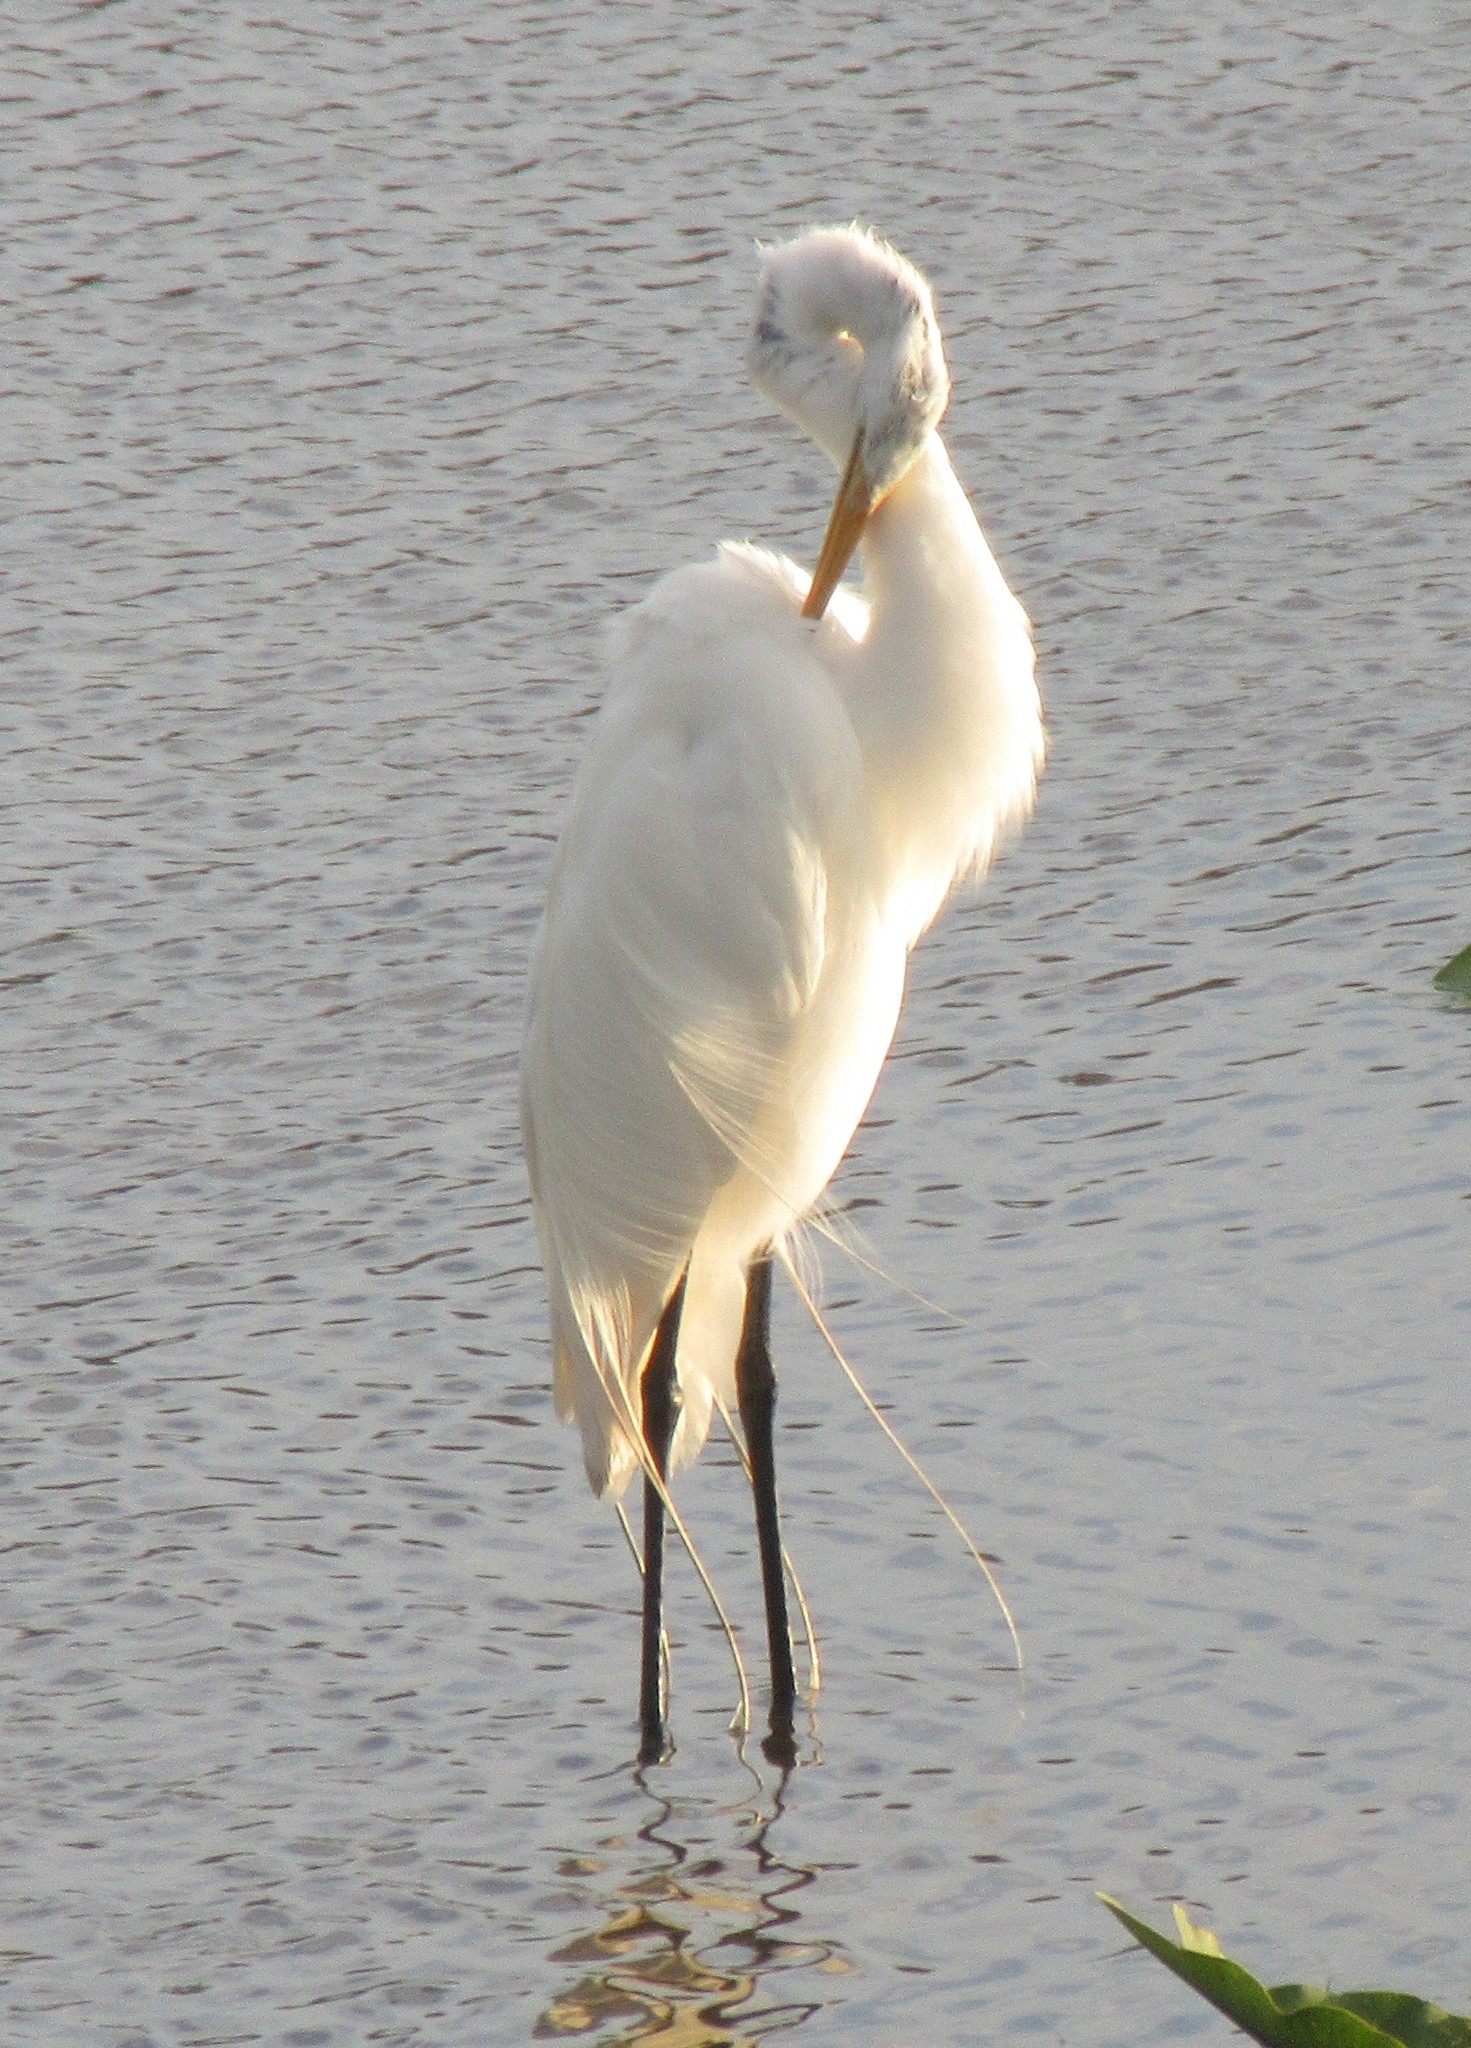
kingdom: Animalia
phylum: Chordata
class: Aves
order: Pelecaniformes
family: Ardeidae
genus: Ardea
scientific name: Ardea alba
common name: Great egret
